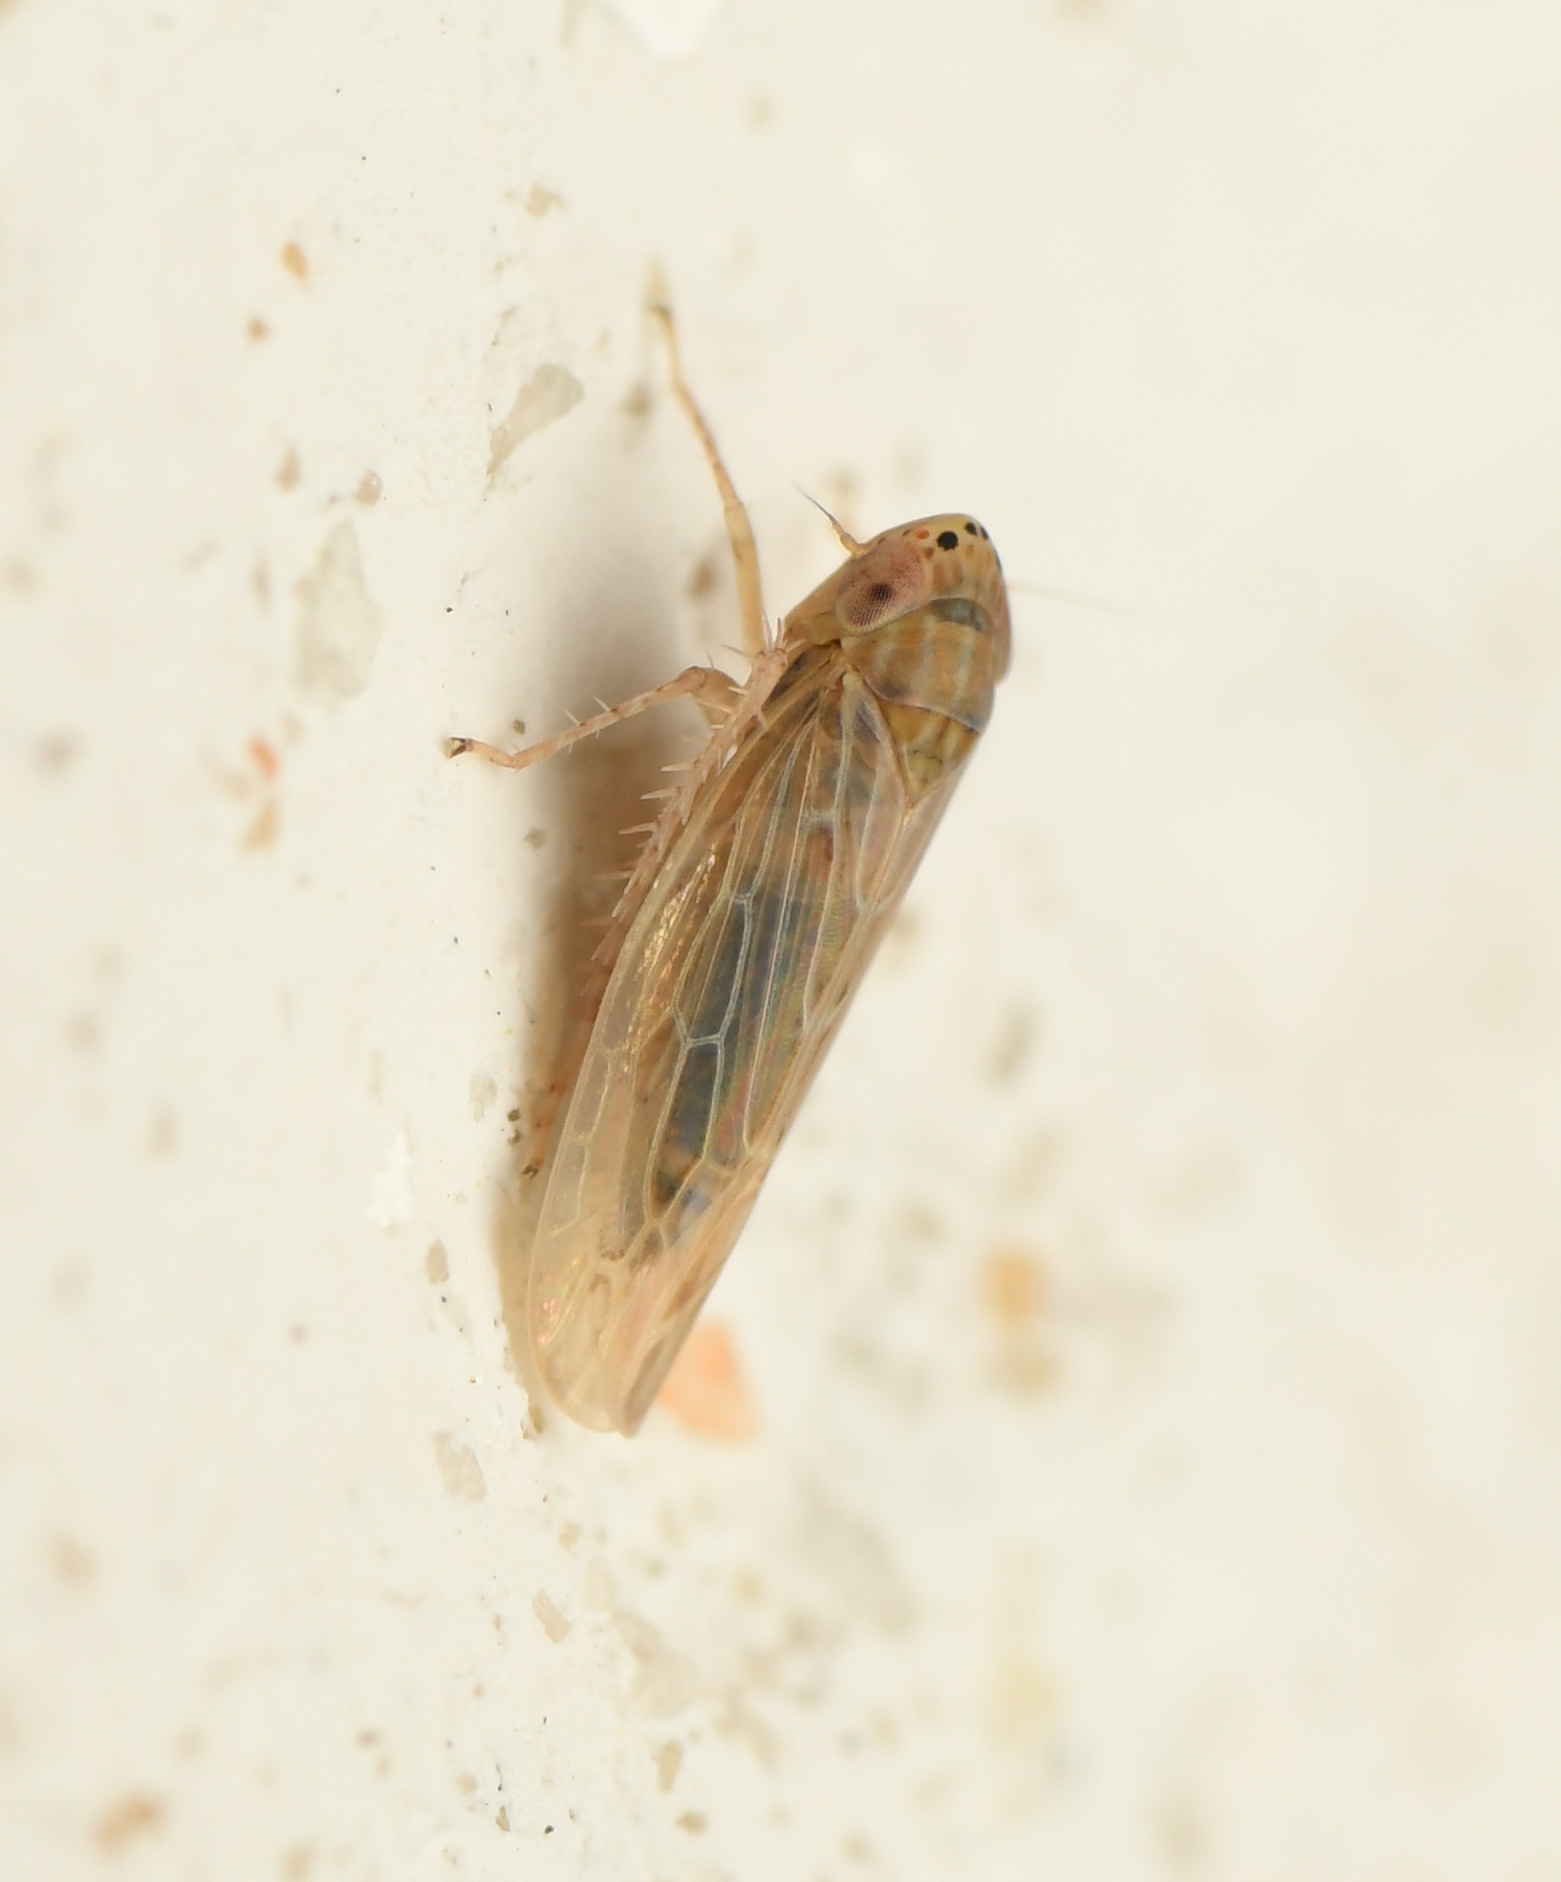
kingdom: Animalia
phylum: Arthropoda
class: Insecta
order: Hemiptera
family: Cicadellidae
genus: Graminella
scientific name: Graminella sonora
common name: Lesser lawn leafhopper
